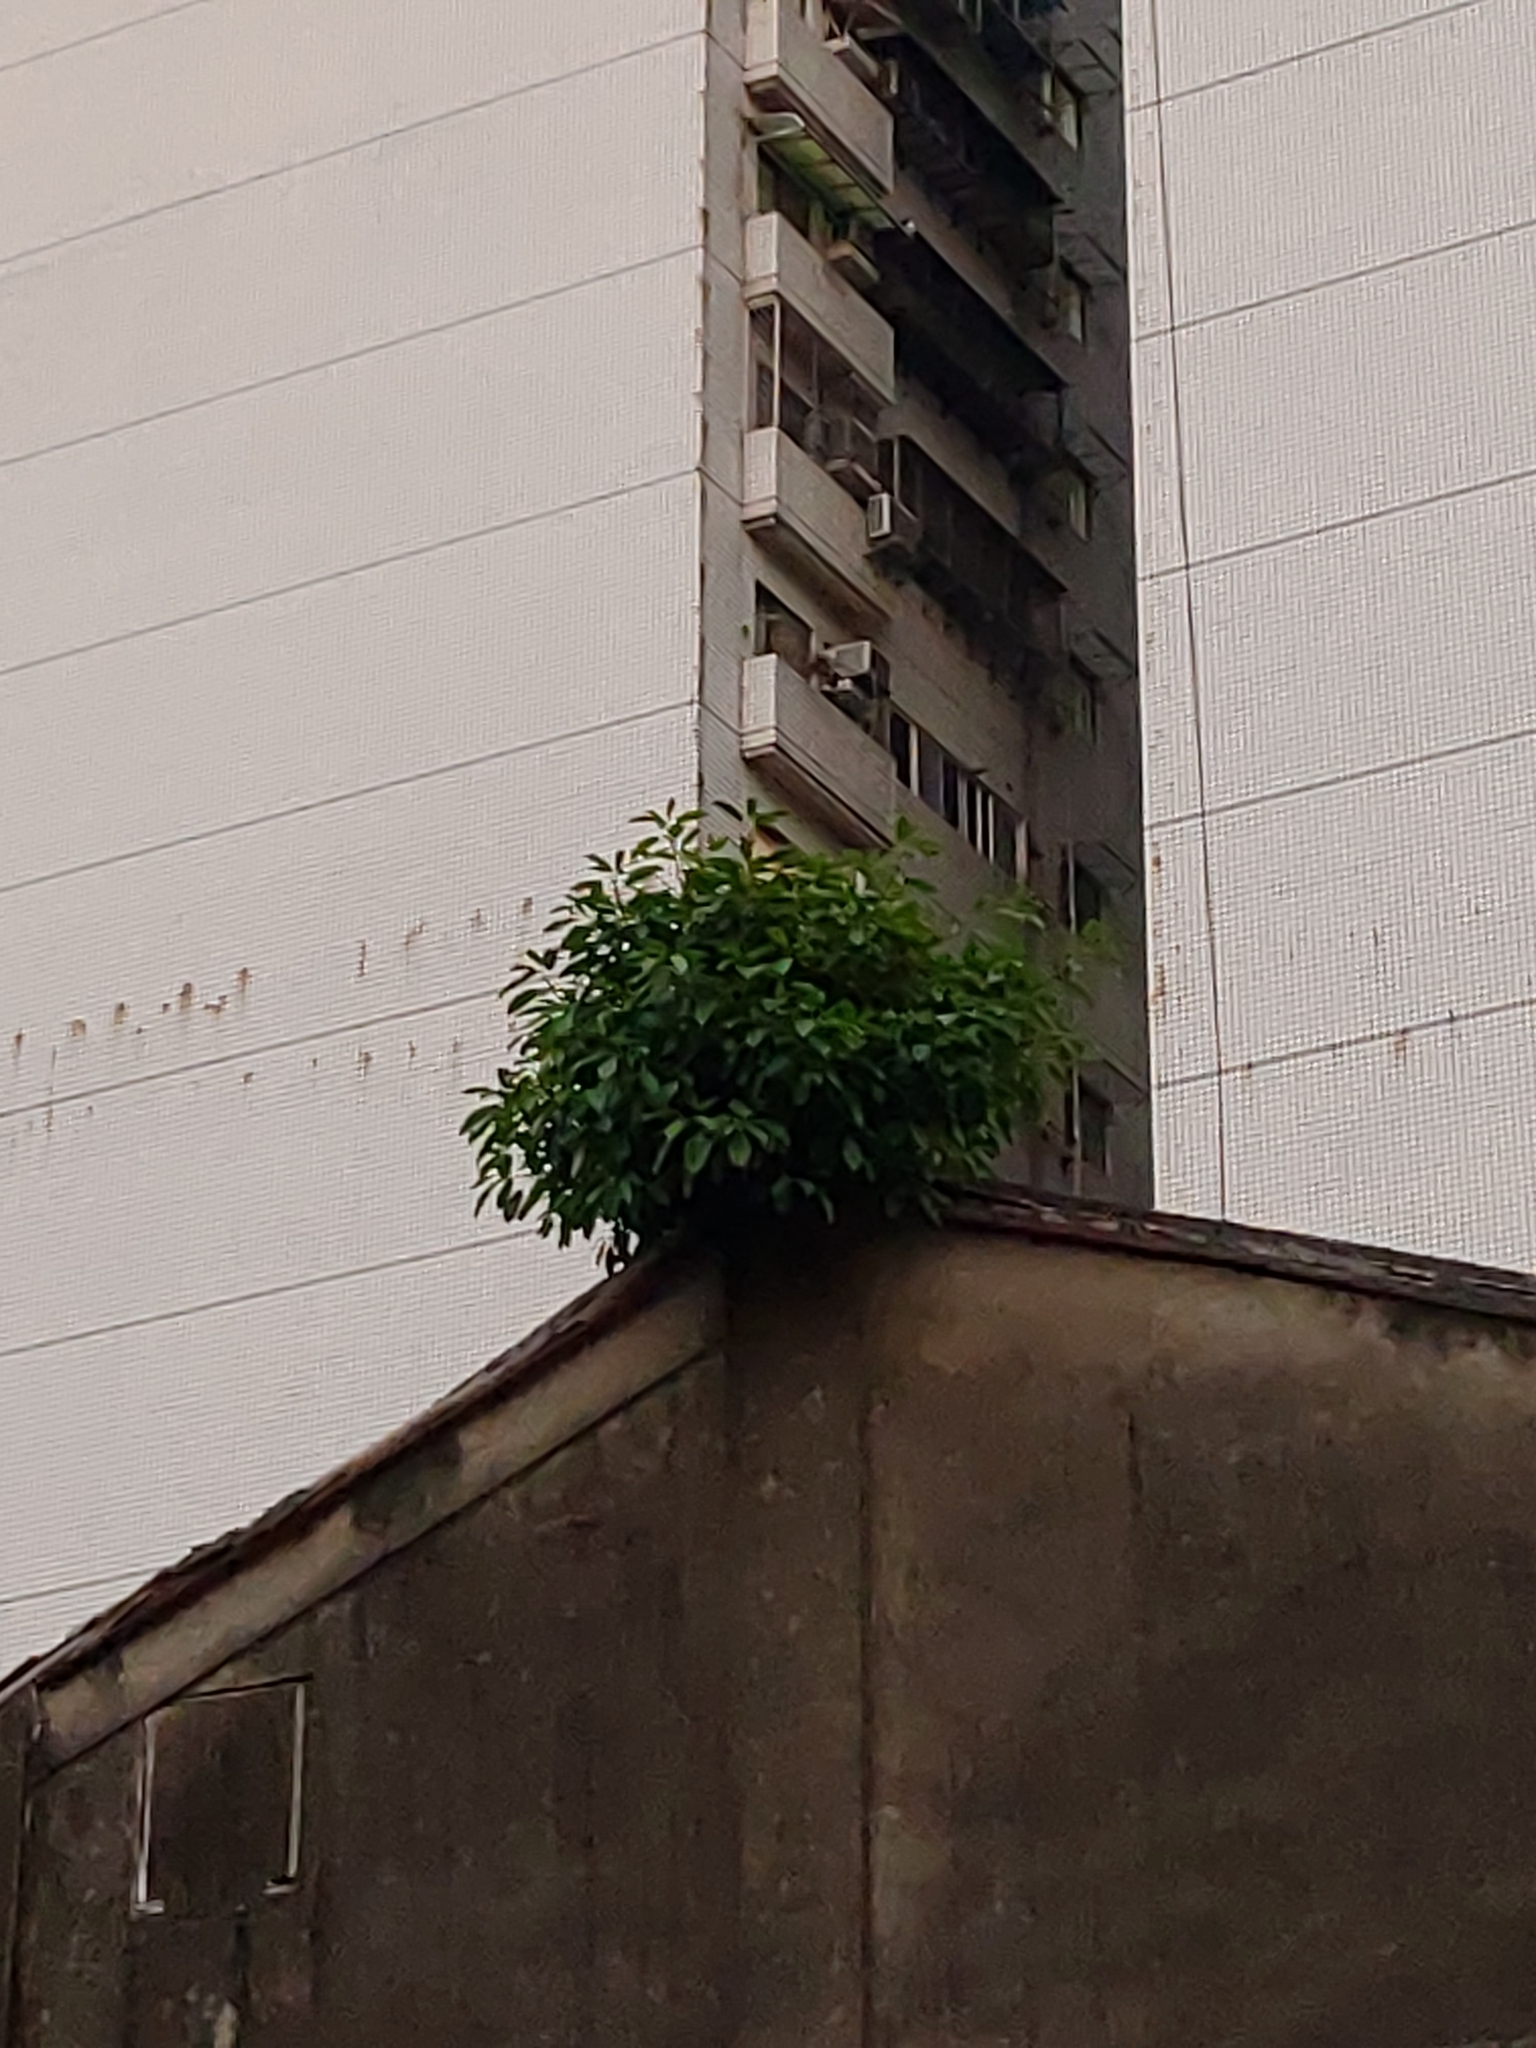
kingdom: Plantae
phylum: Tracheophyta
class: Magnoliopsida
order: Rosales
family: Moraceae
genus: Ficus
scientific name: Ficus microcarpa
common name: Chinese banyan
